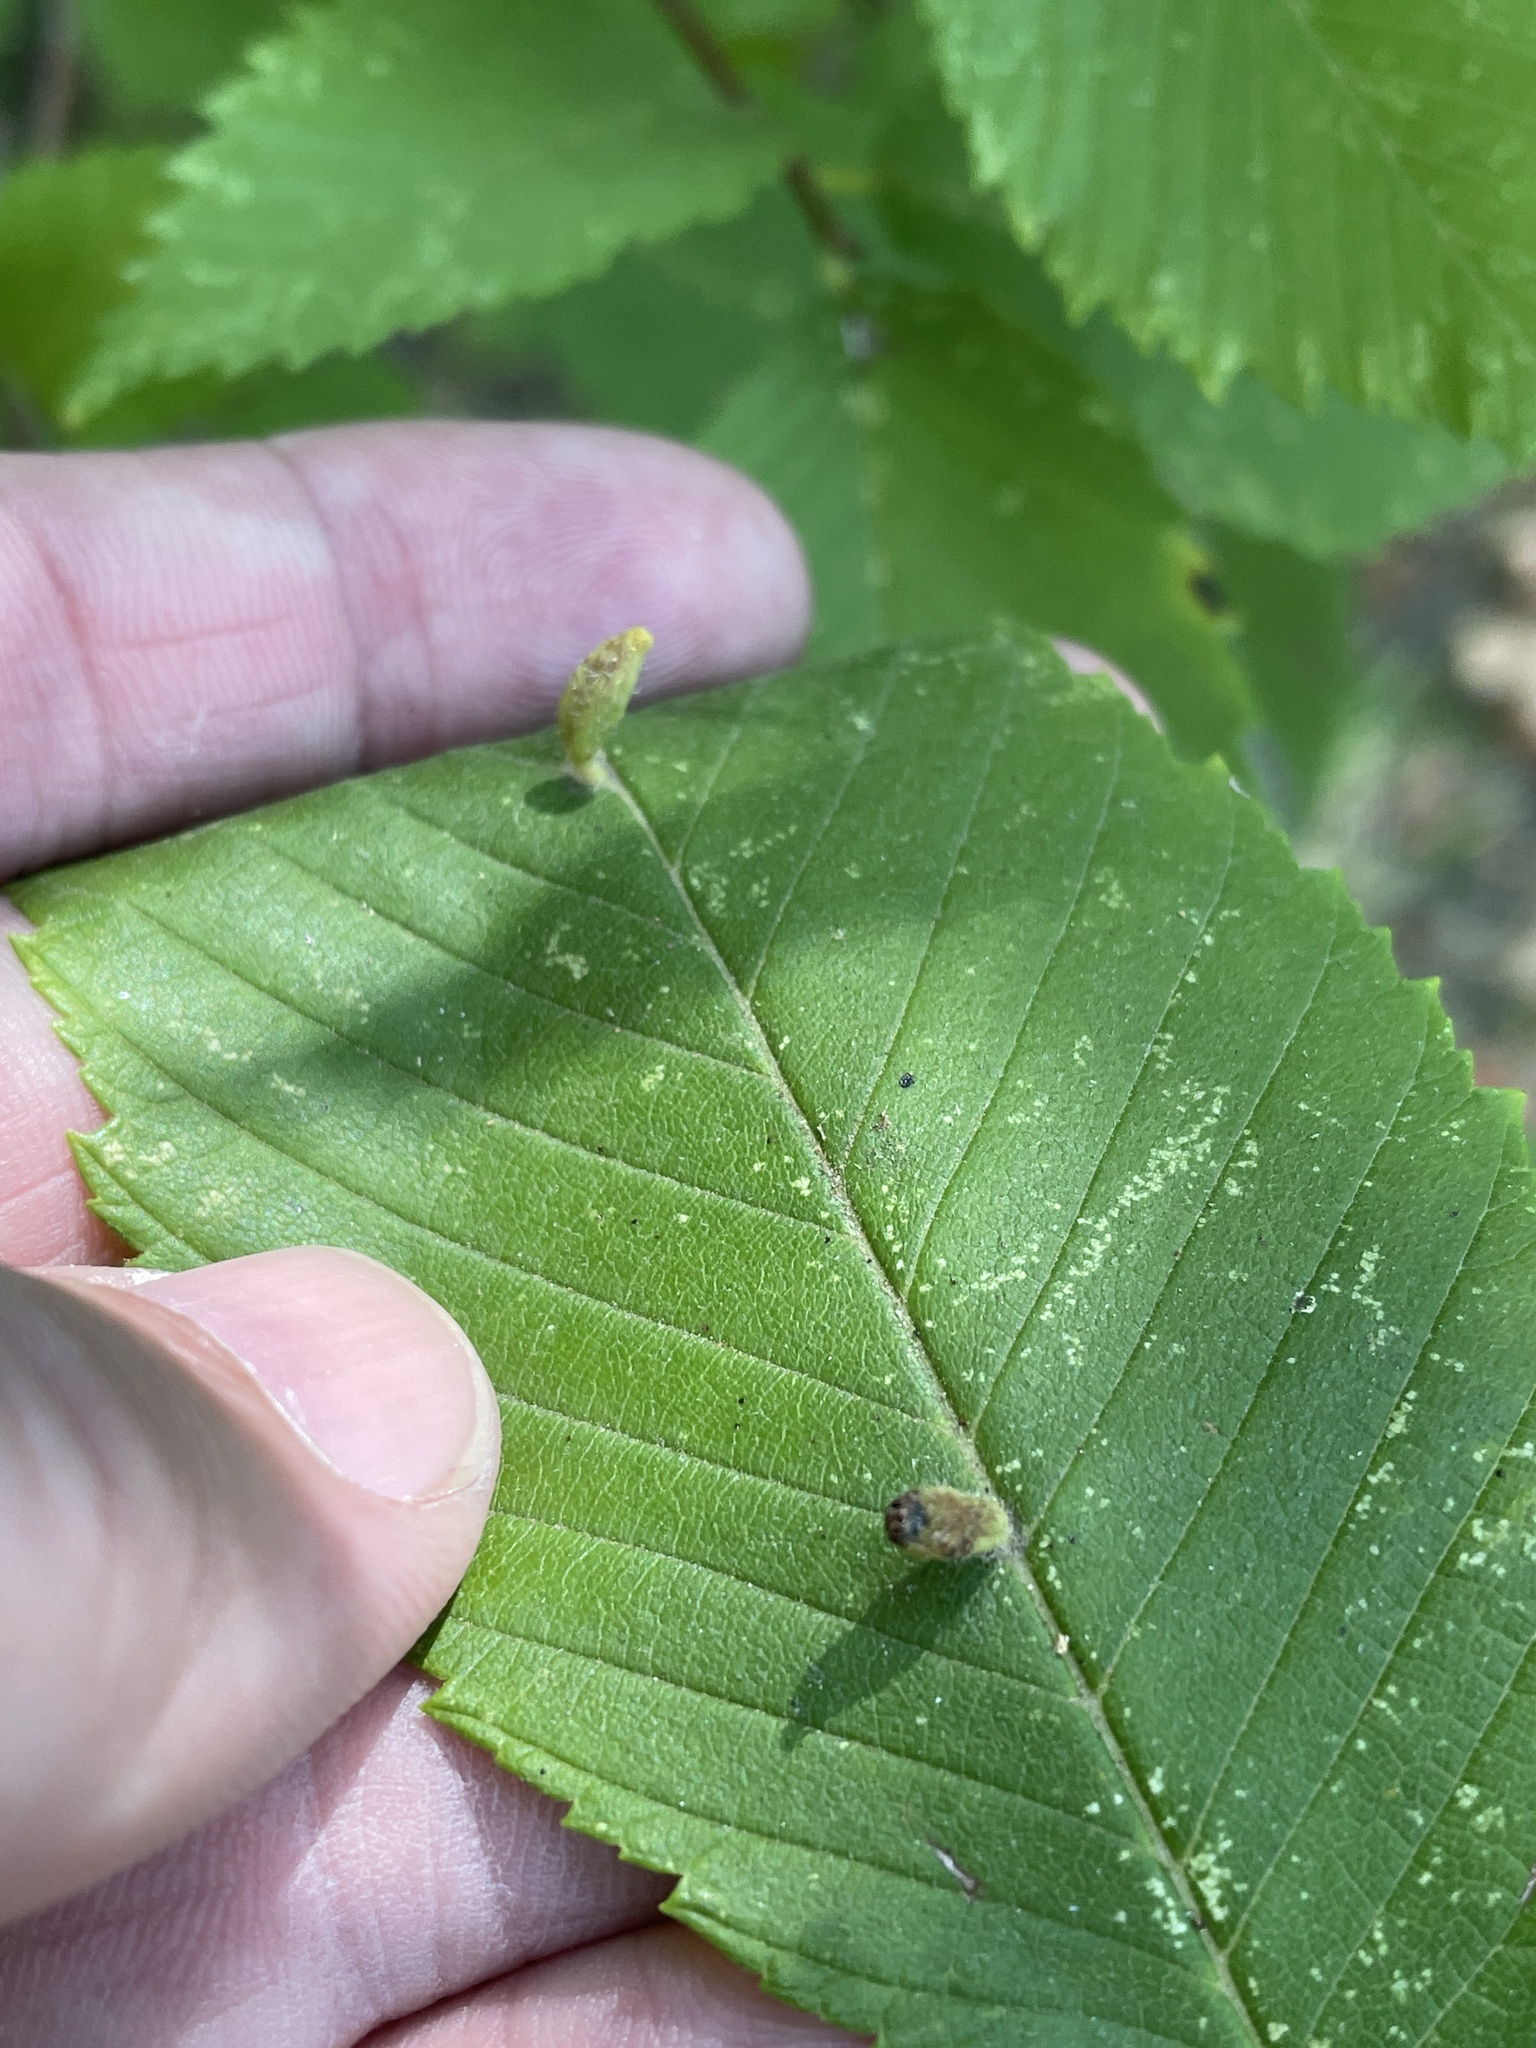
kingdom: Animalia
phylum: Arthropoda
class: Arachnida
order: Trombidiformes
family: Eriophyidae
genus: Aceria
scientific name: Aceria
